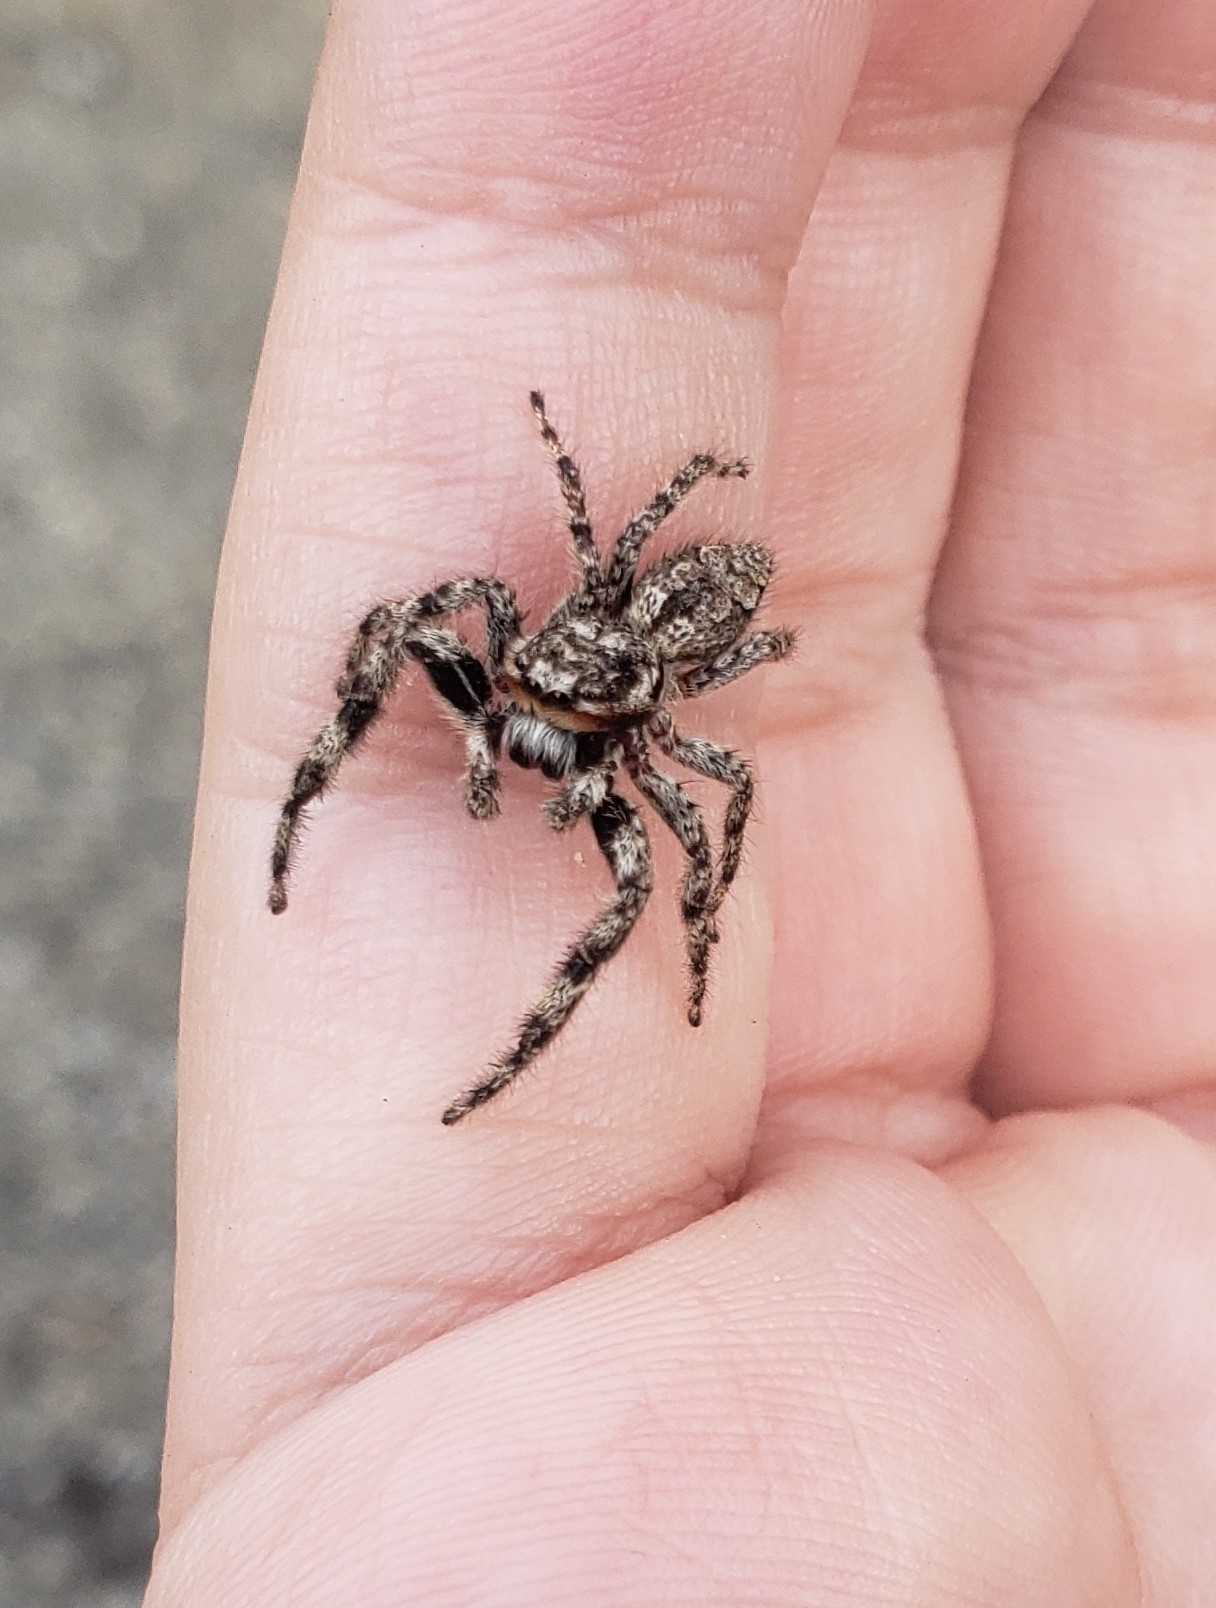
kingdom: Animalia
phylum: Arthropoda
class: Arachnida
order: Araneae
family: Salticidae
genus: Platycryptus
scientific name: Platycryptus undatus
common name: Tan jumping spider
